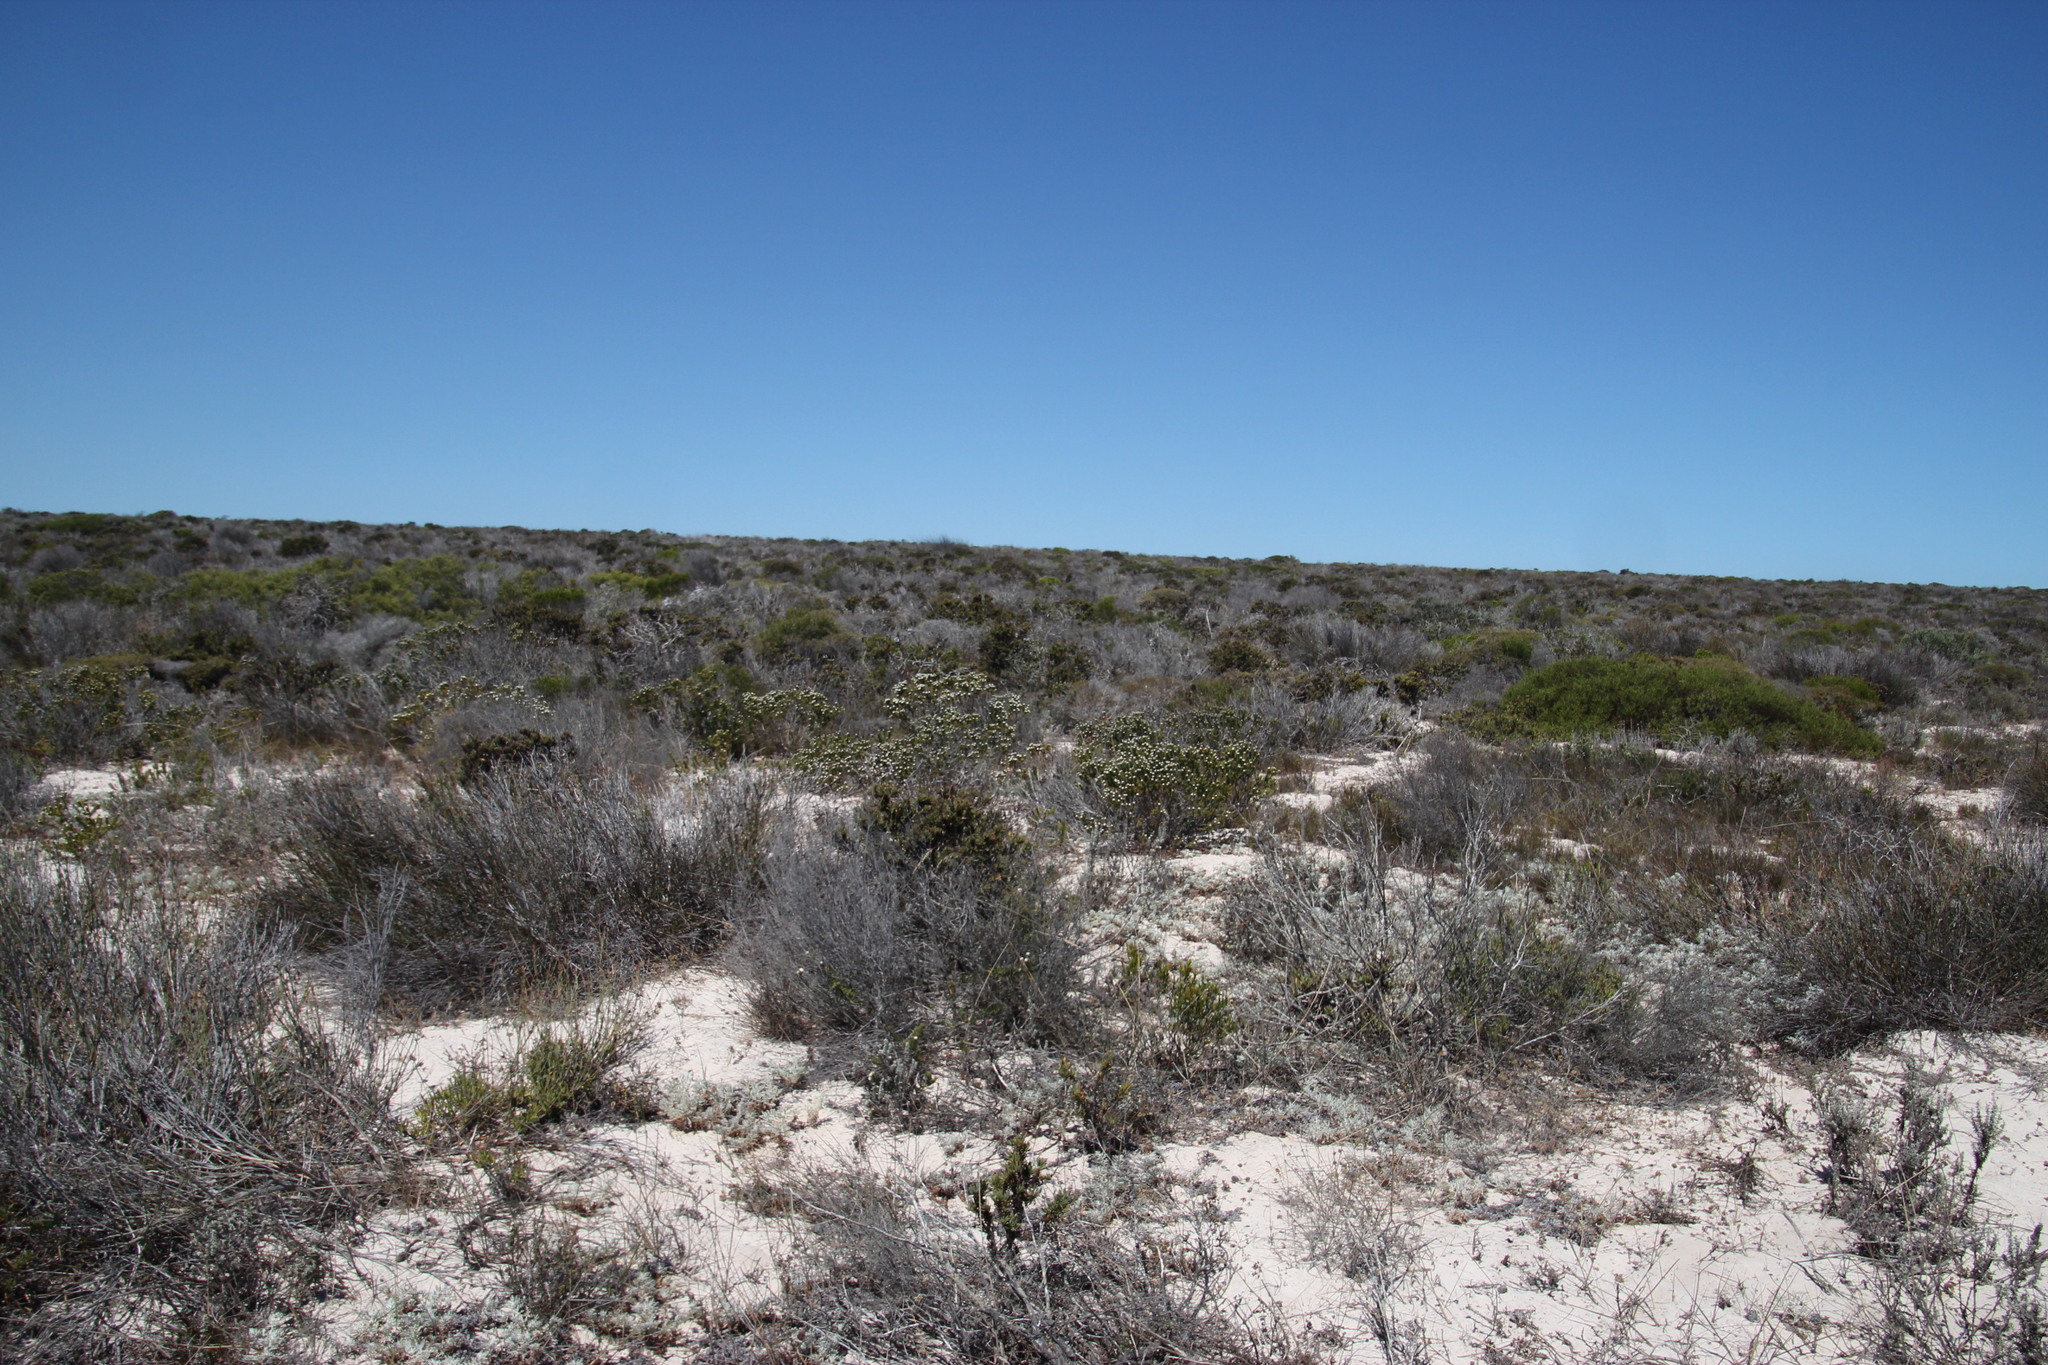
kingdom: Plantae
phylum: Tracheophyta
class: Magnoliopsida
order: Rosales
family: Rhamnaceae
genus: Trichocephalus
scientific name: Trichocephalus stipularis
